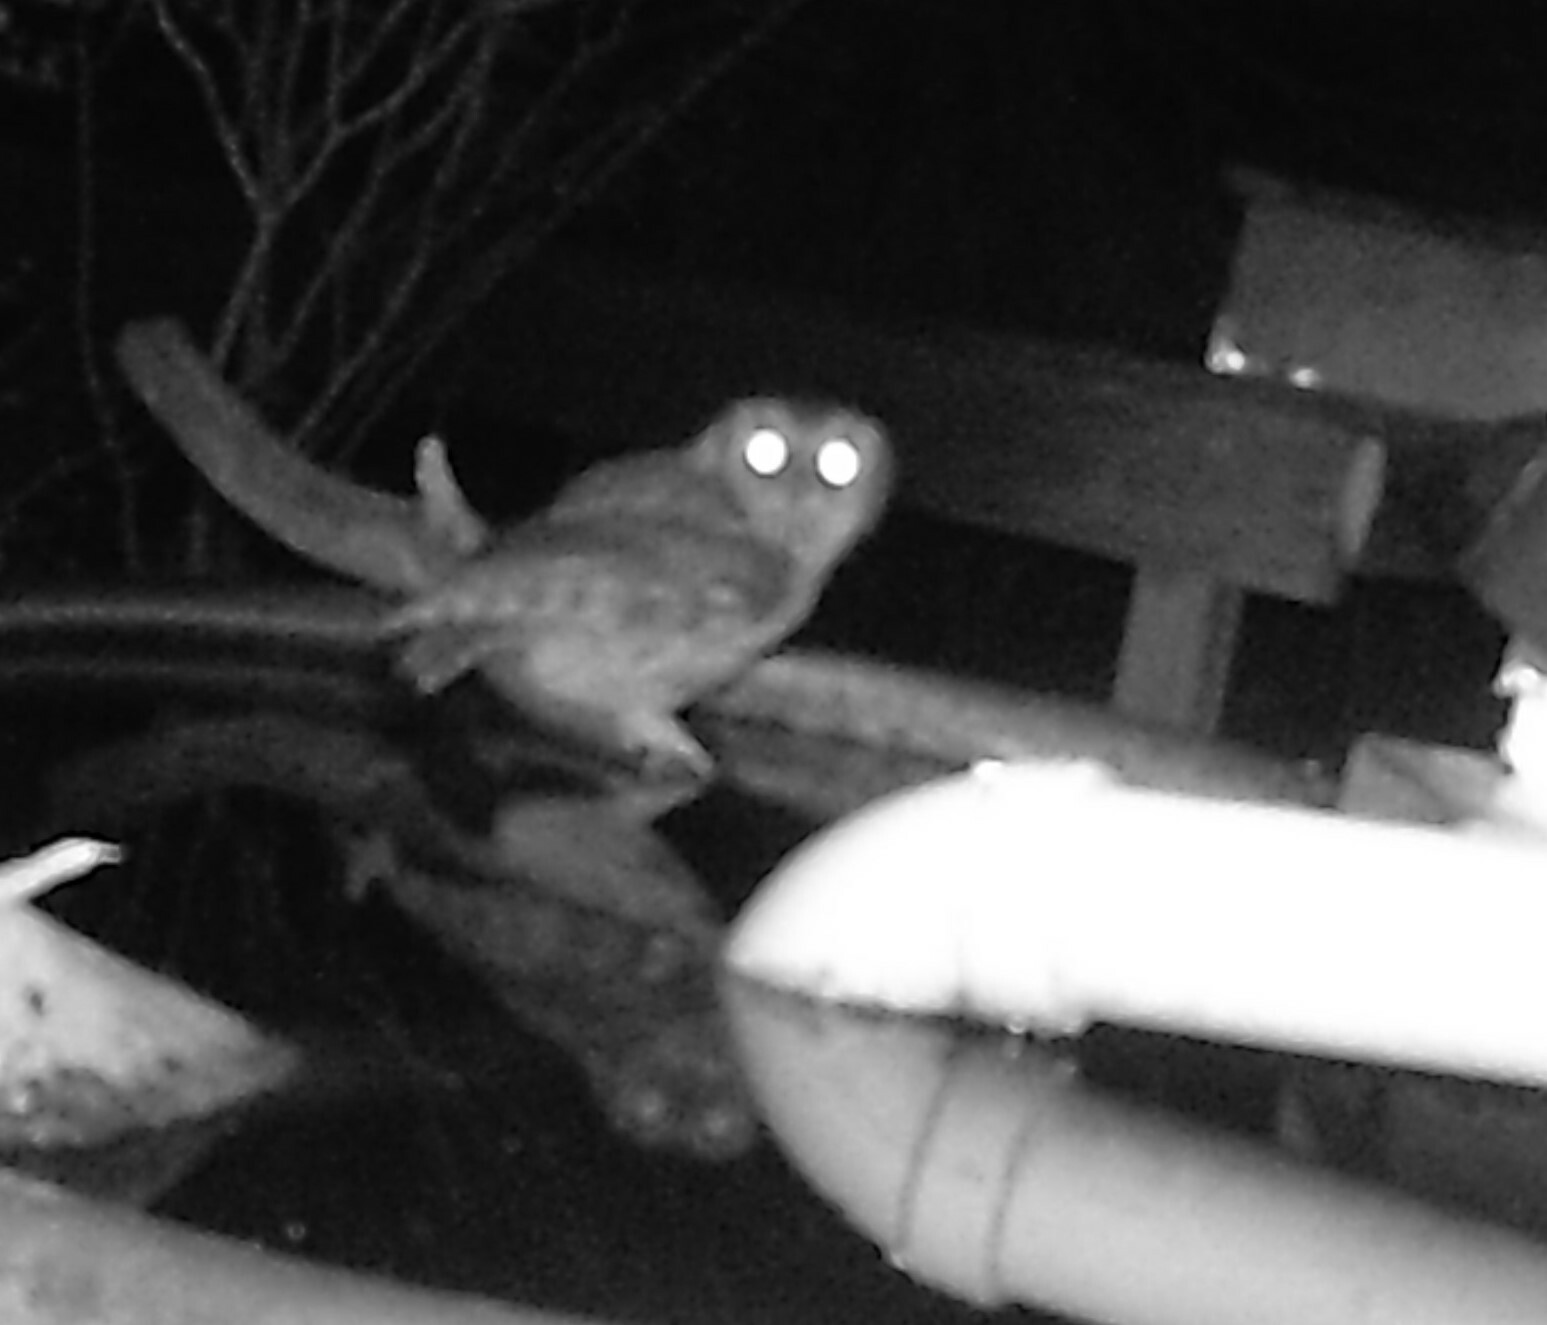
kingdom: Animalia
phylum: Chordata
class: Aves
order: Strigiformes
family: Strigidae
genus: Megascops
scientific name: Megascops asio
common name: Eastern screech-owl
